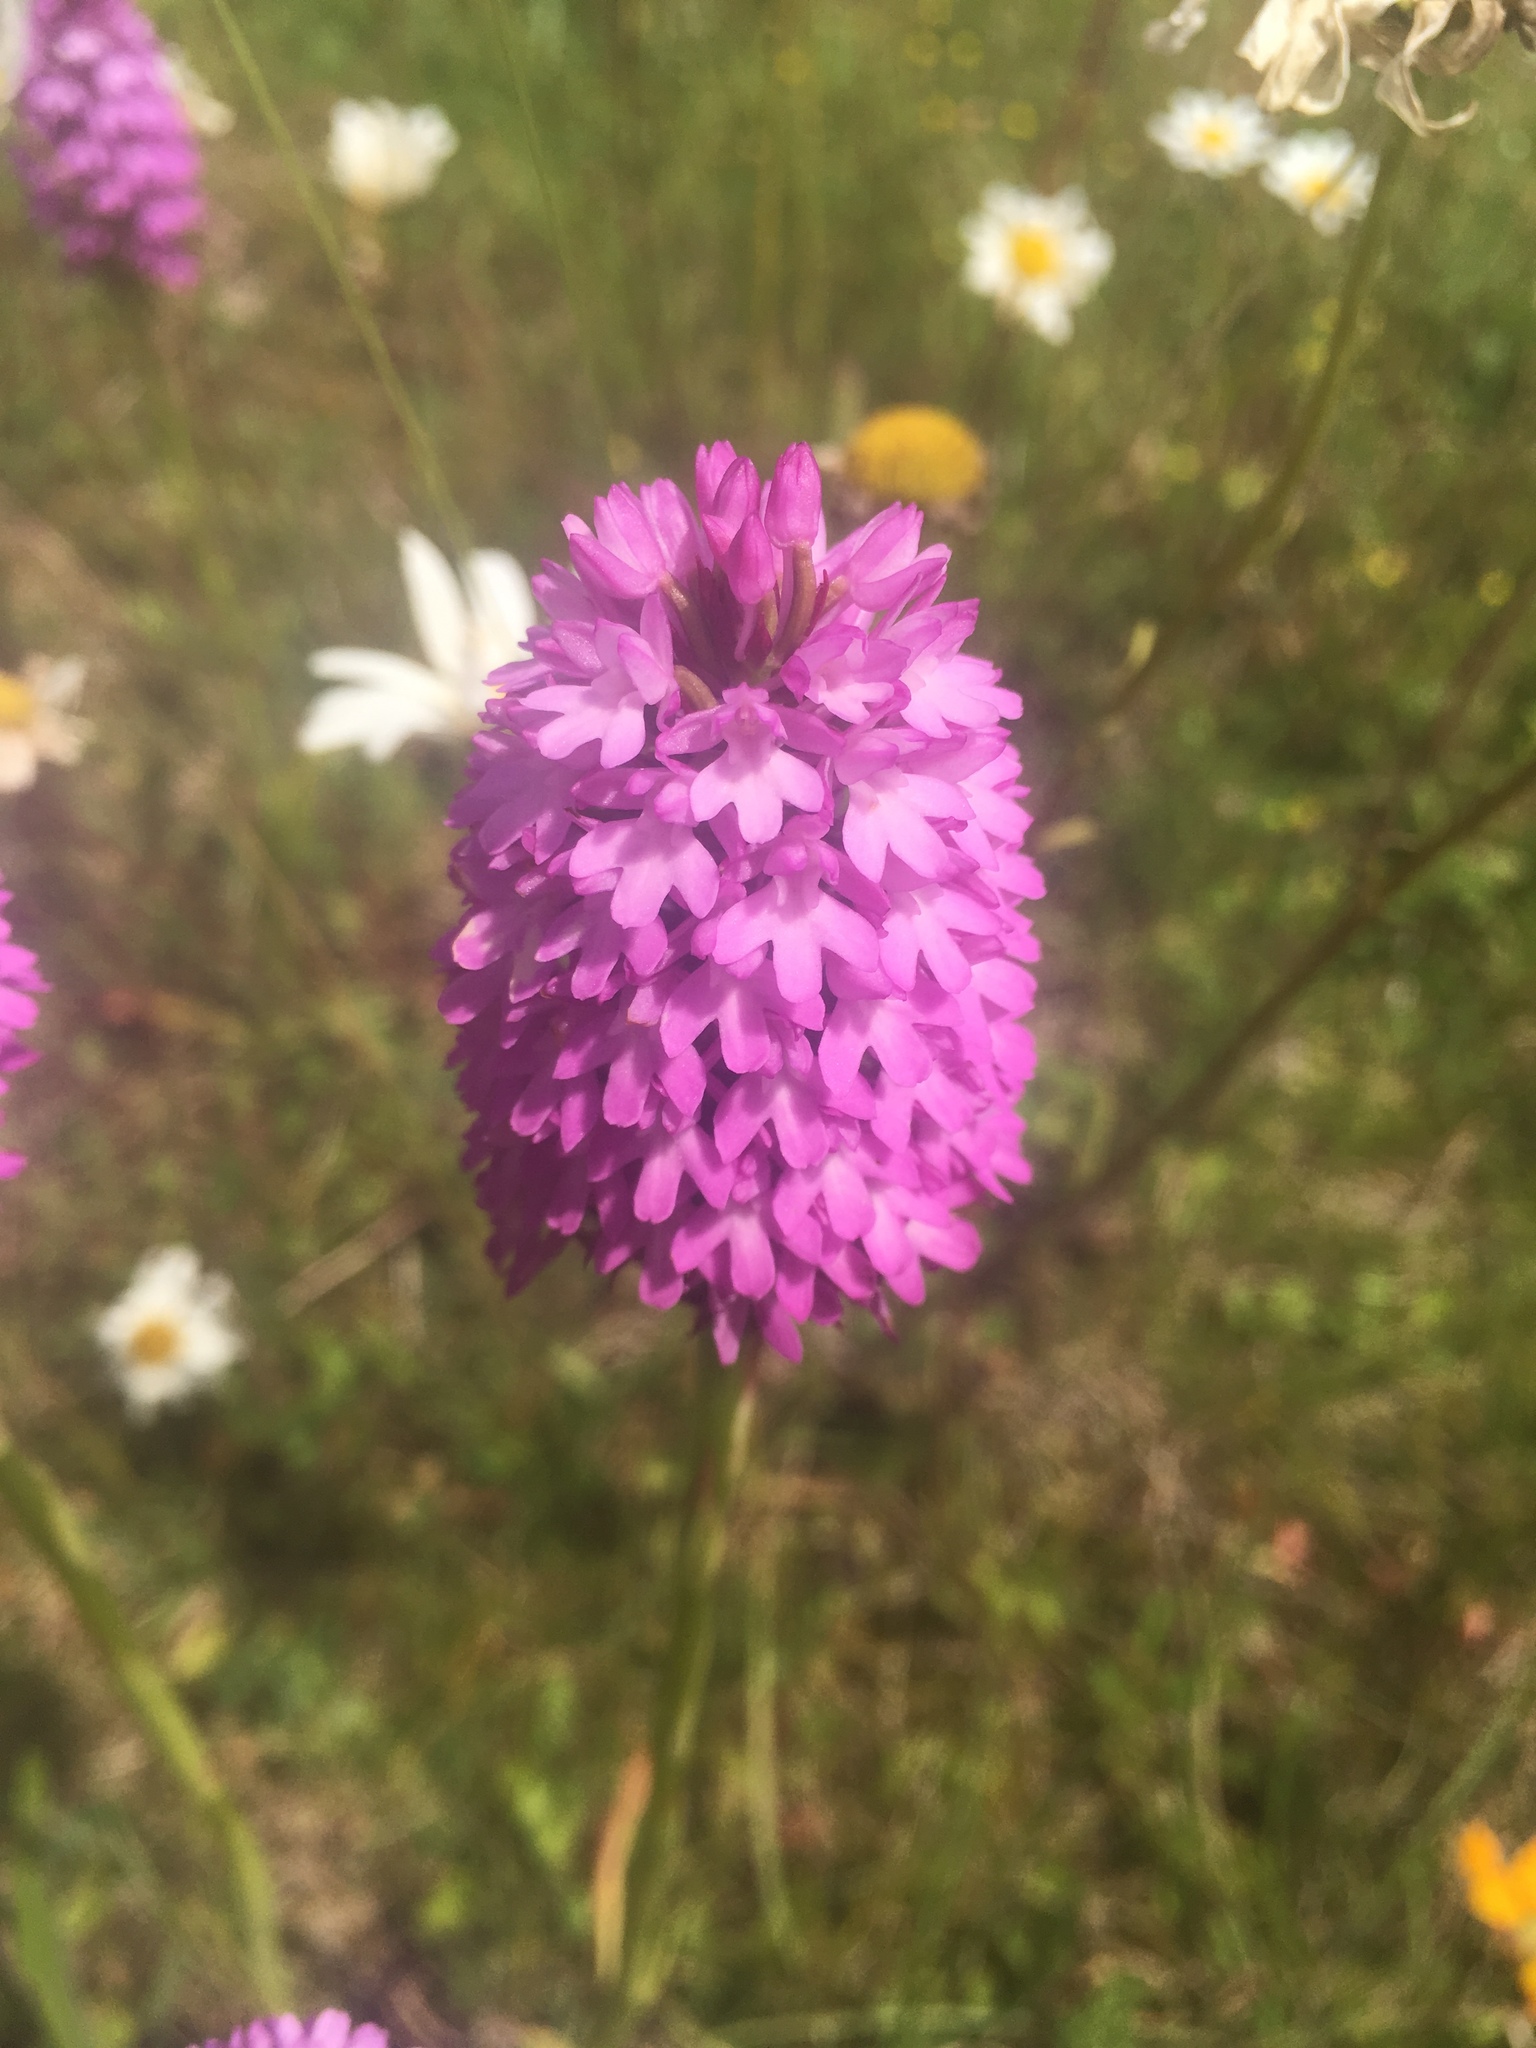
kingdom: Plantae
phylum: Tracheophyta
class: Liliopsida
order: Asparagales
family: Orchidaceae
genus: Anacamptis
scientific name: Anacamptis pyramidalis
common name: Pyramidal orchid
